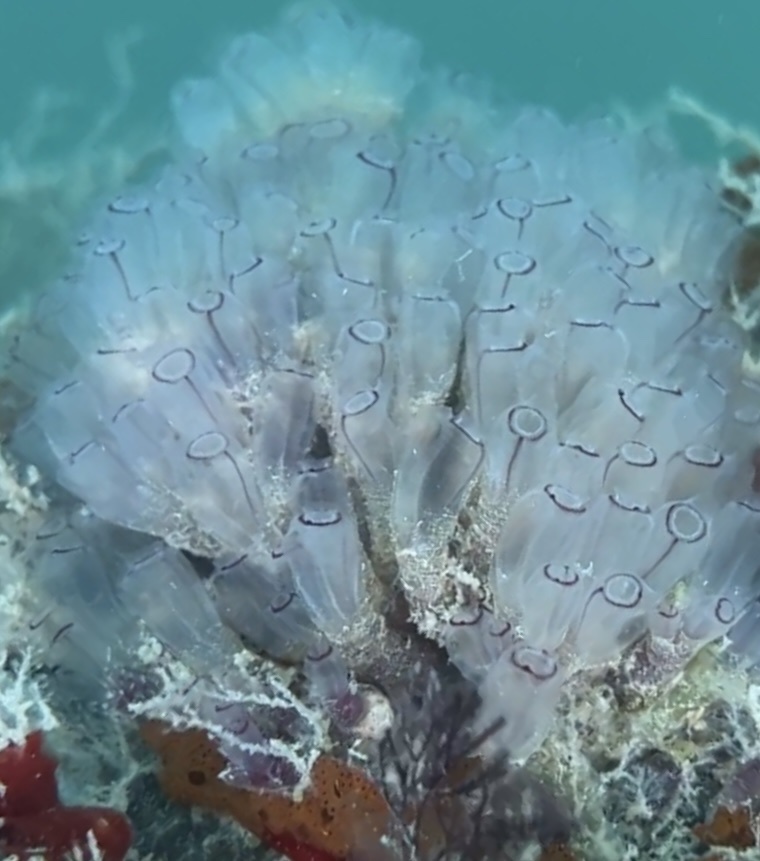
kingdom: Animalia
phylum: Chordata
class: Ascidiacea
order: Aplousobranchia
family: Clavelinidae
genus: Clavelina
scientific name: Clavelina picta
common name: Painted tunicate
